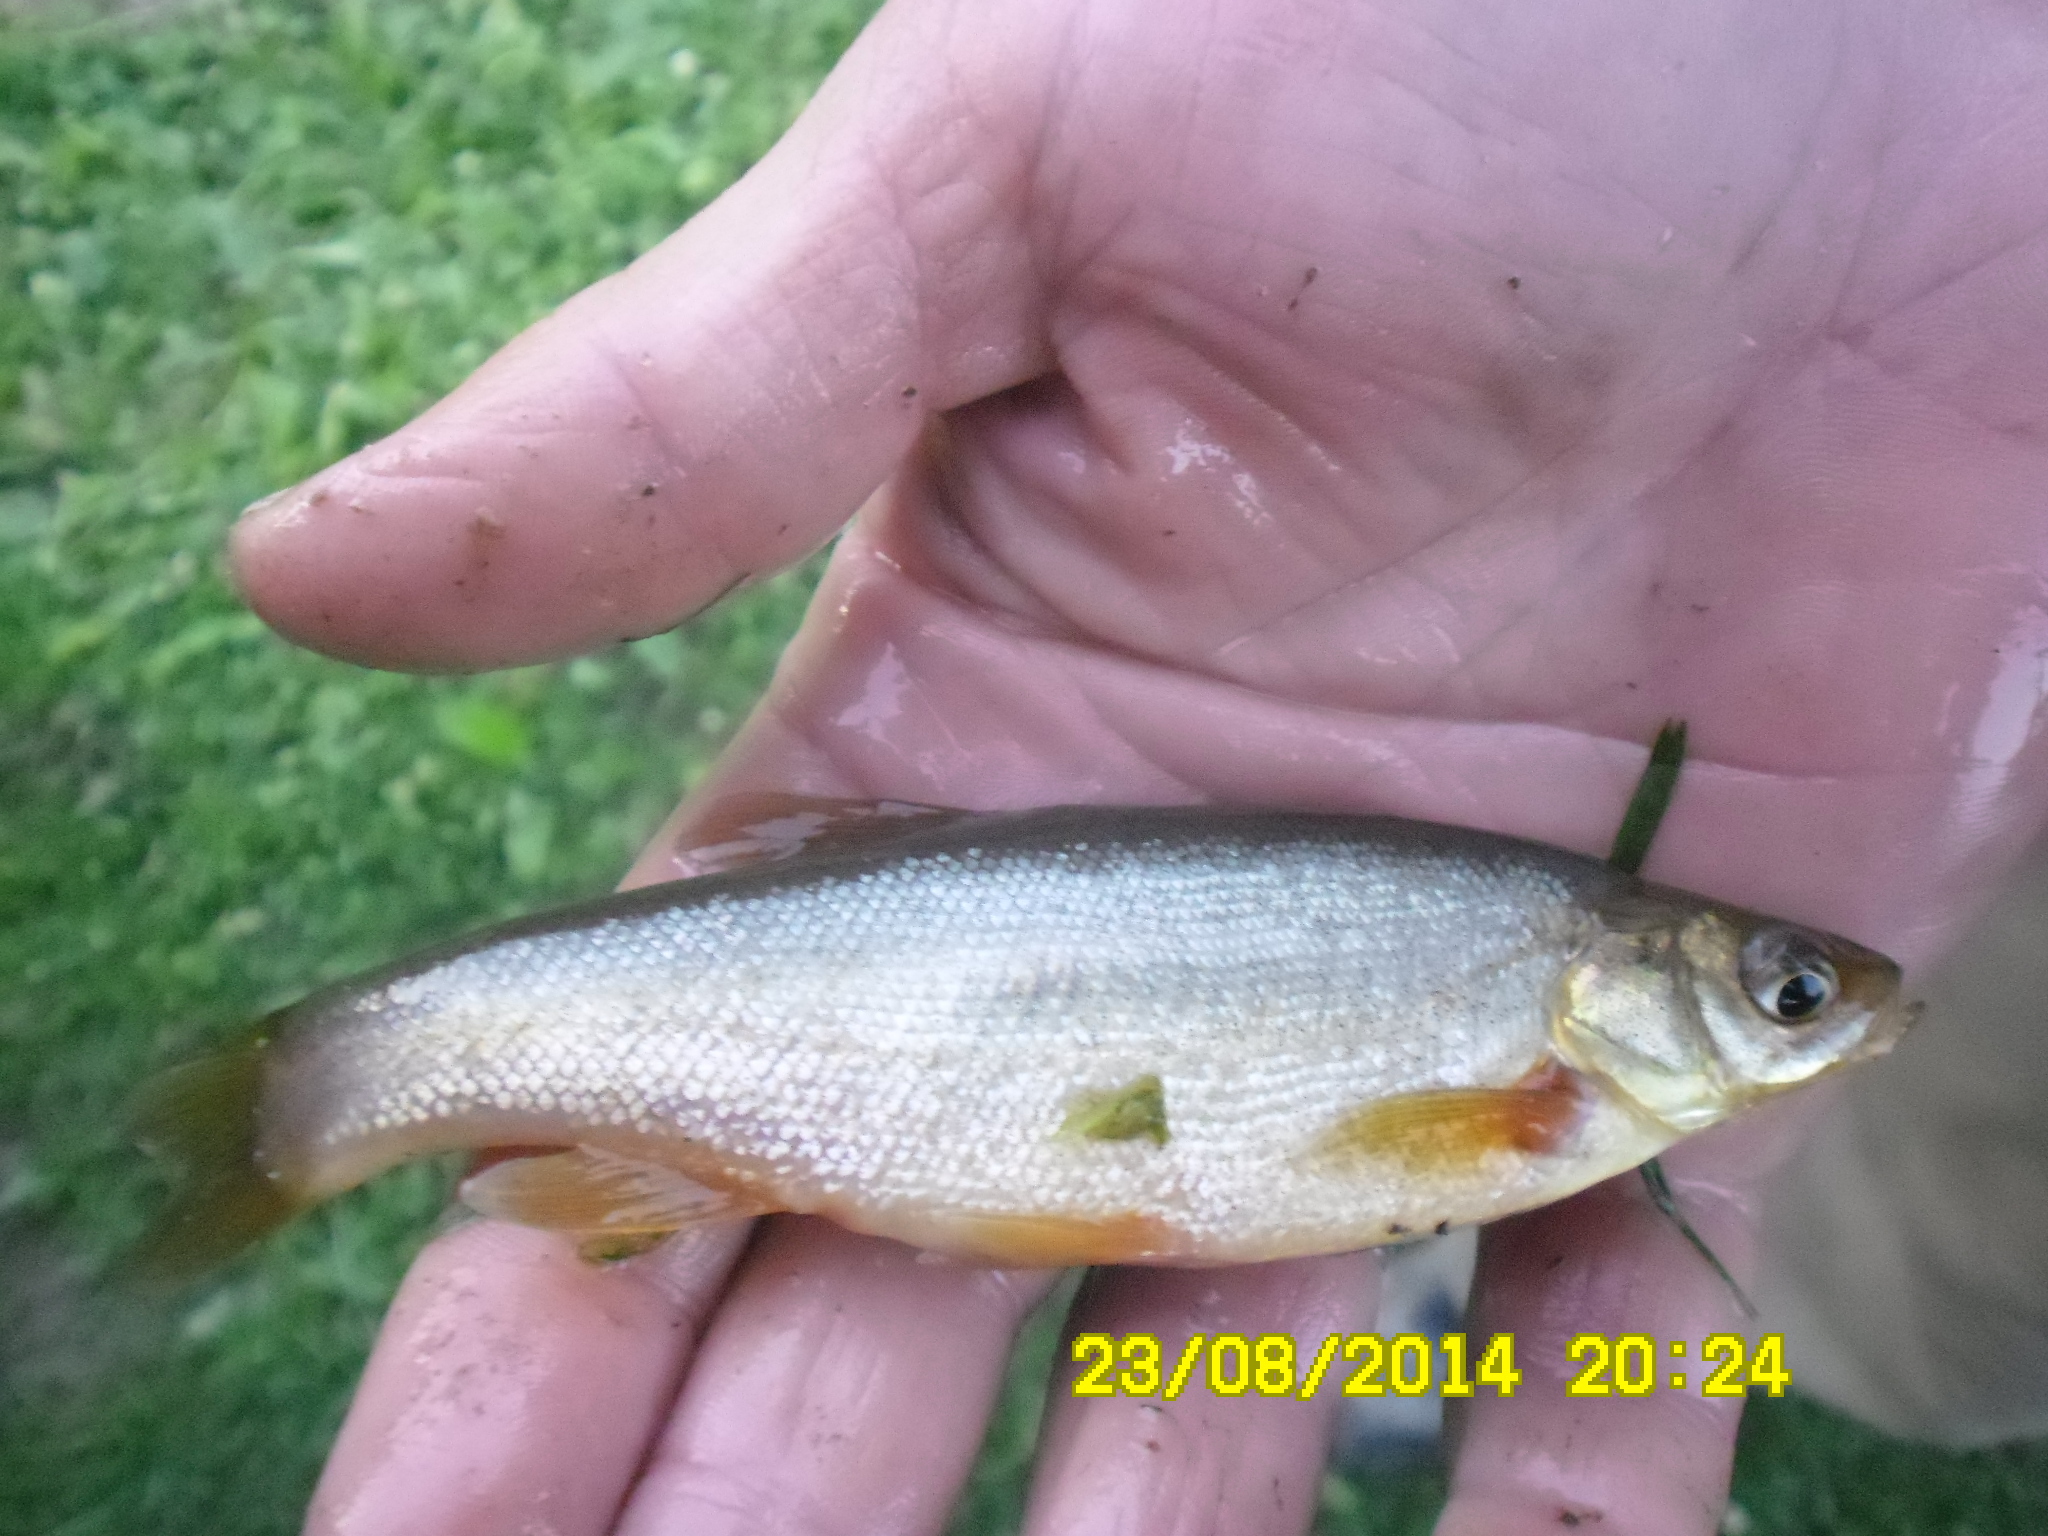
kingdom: Animalia
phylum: Chordata
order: Cypriniformes
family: Cyprinidae
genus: Rhynchocypris
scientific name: Rhynchocypris percnurus
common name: Swamp minnow
